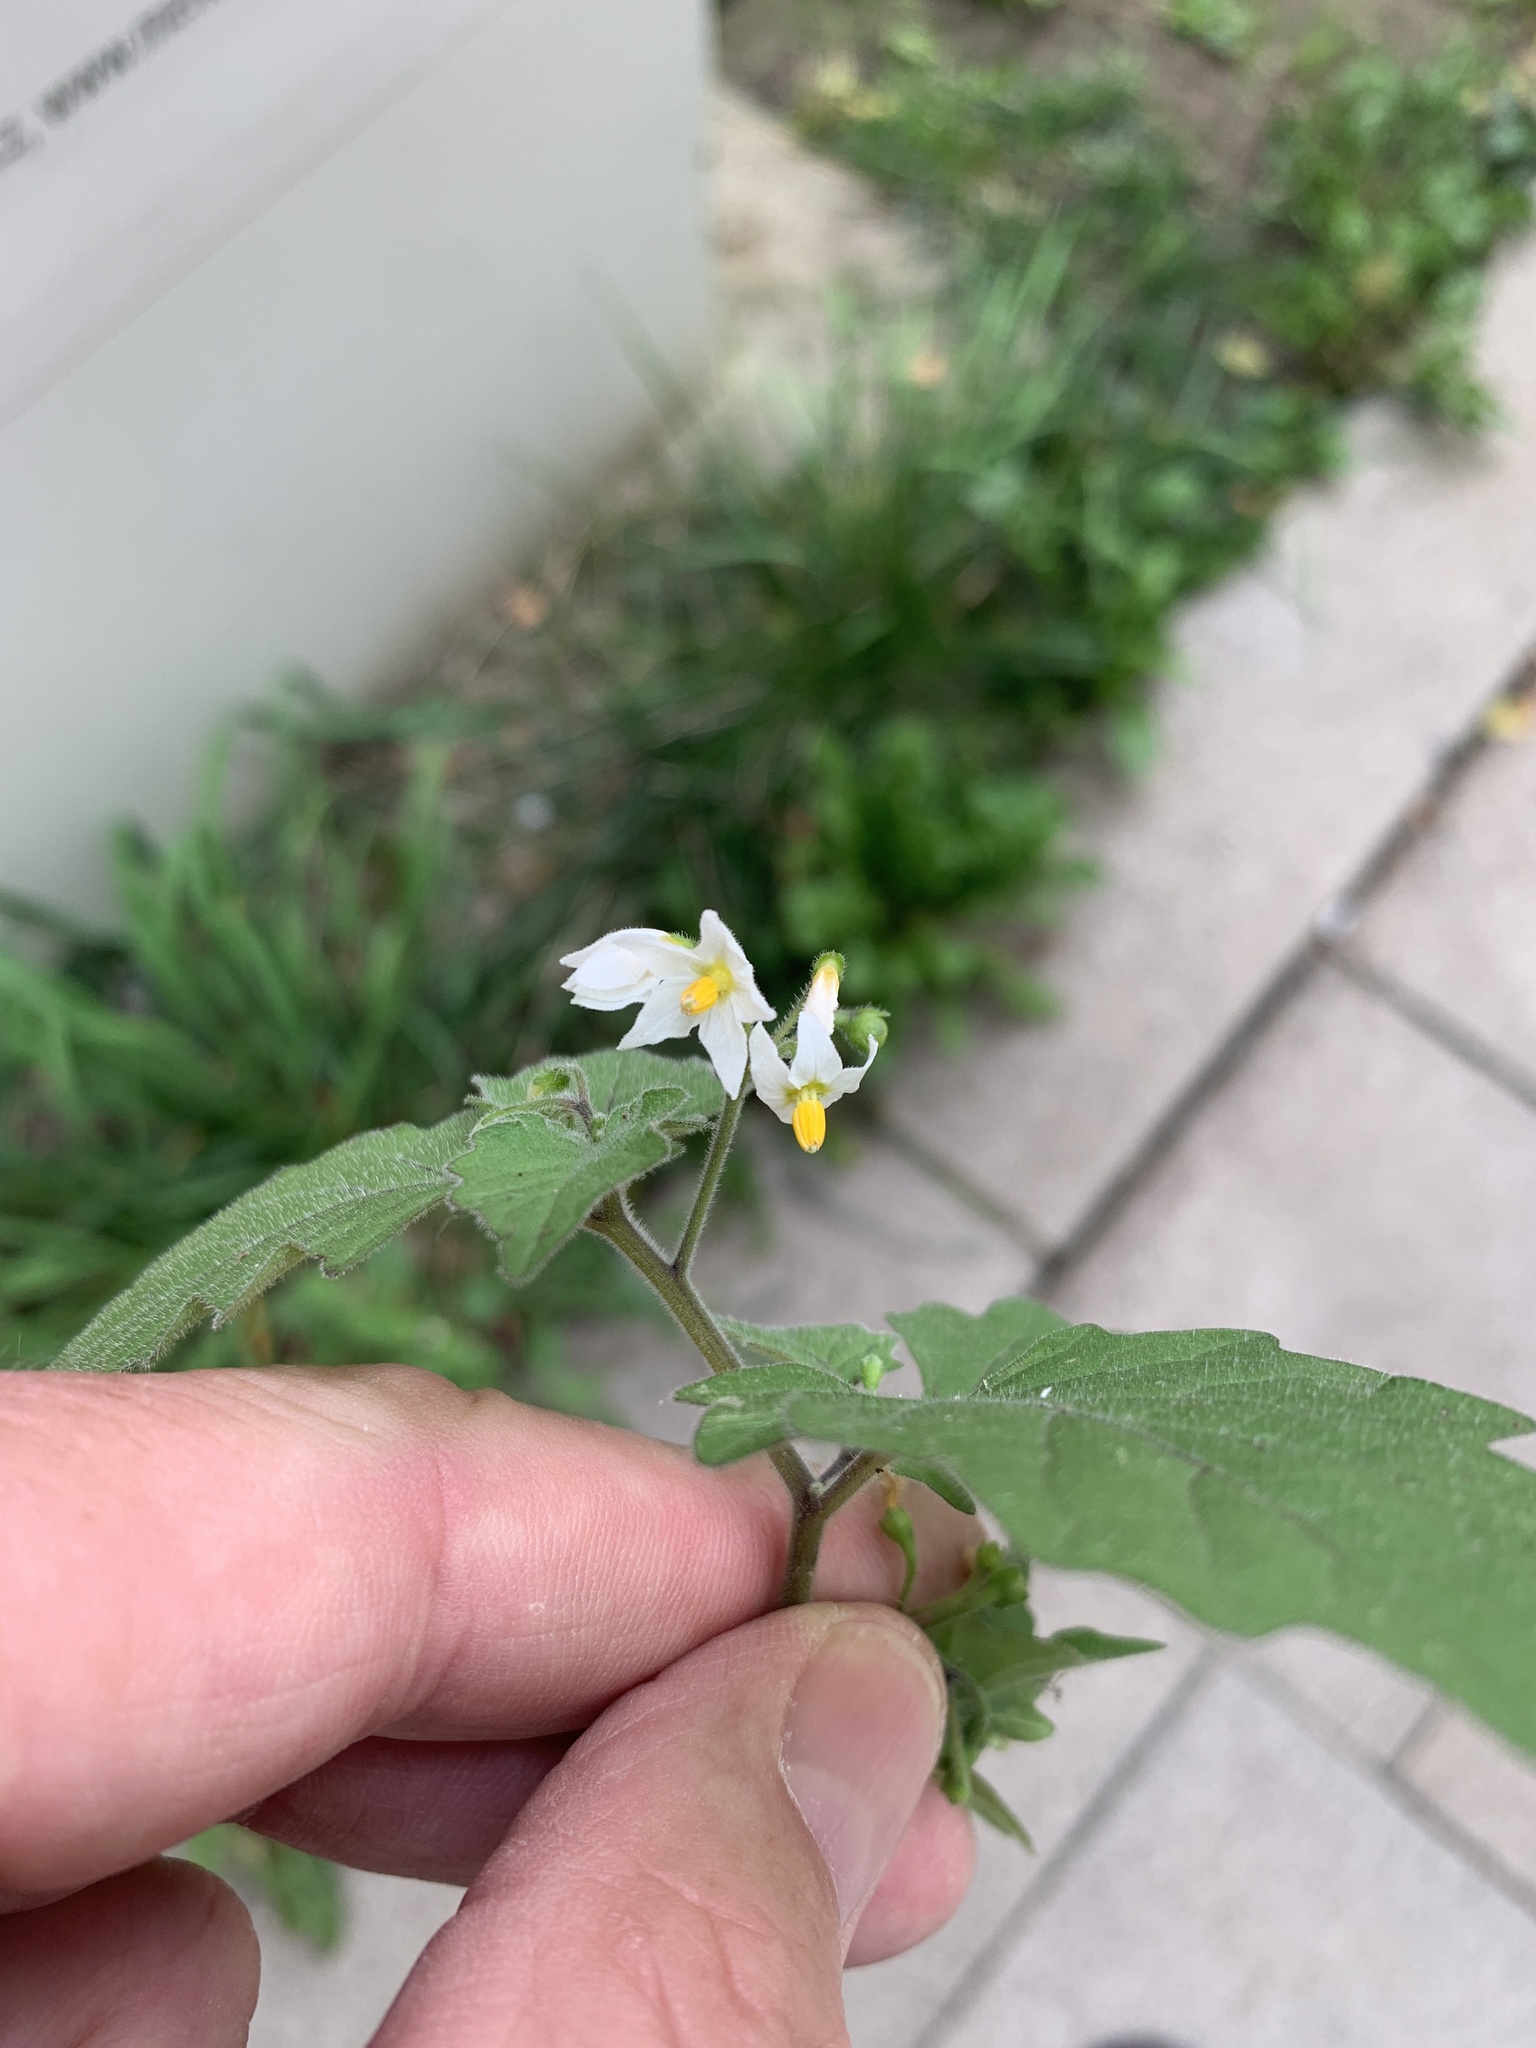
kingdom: Plantae
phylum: Tracheophyta
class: Magnoliopsida
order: Solanales
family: Solanaceae
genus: Solanum
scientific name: Solanum nigrum
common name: Black nightshade
